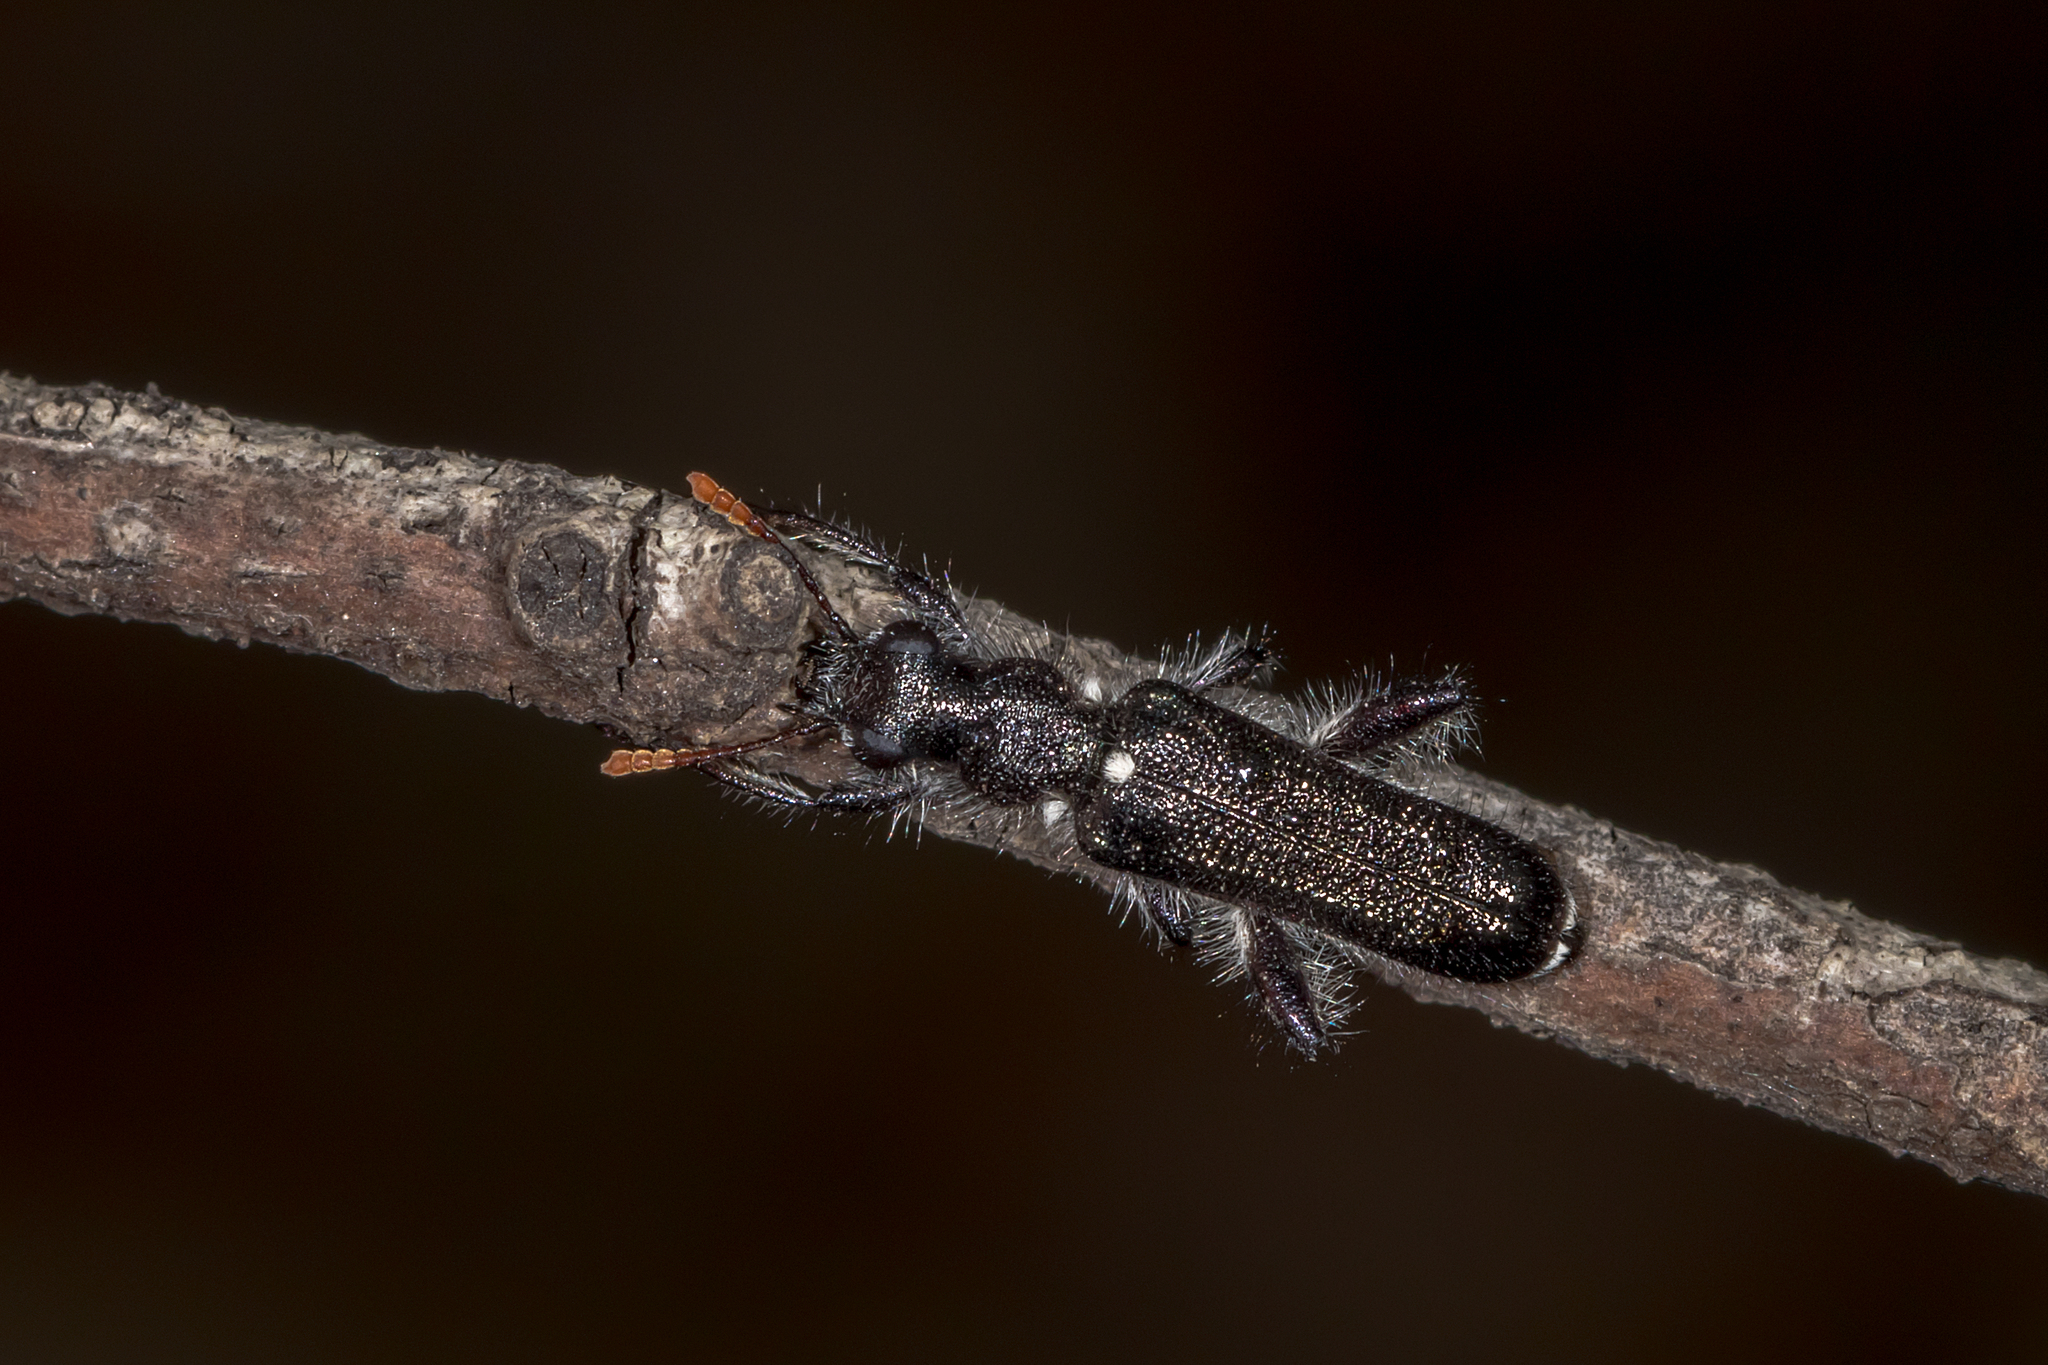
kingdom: Animalia
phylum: Arthropoda
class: Insecta
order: Coleoptera
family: Cleridae
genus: Eleale
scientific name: Eleale
